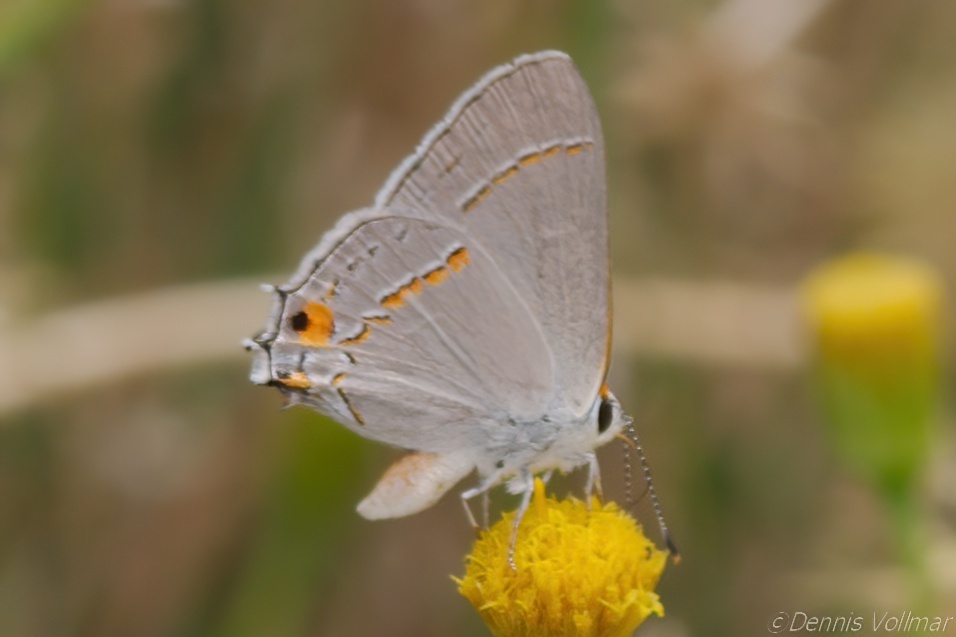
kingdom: Animalia
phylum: Arthropoda
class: Insecta
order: Lepidoptera
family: Lycaenidae
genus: Strymon
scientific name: Strymon melinus
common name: Gray hairstreak
